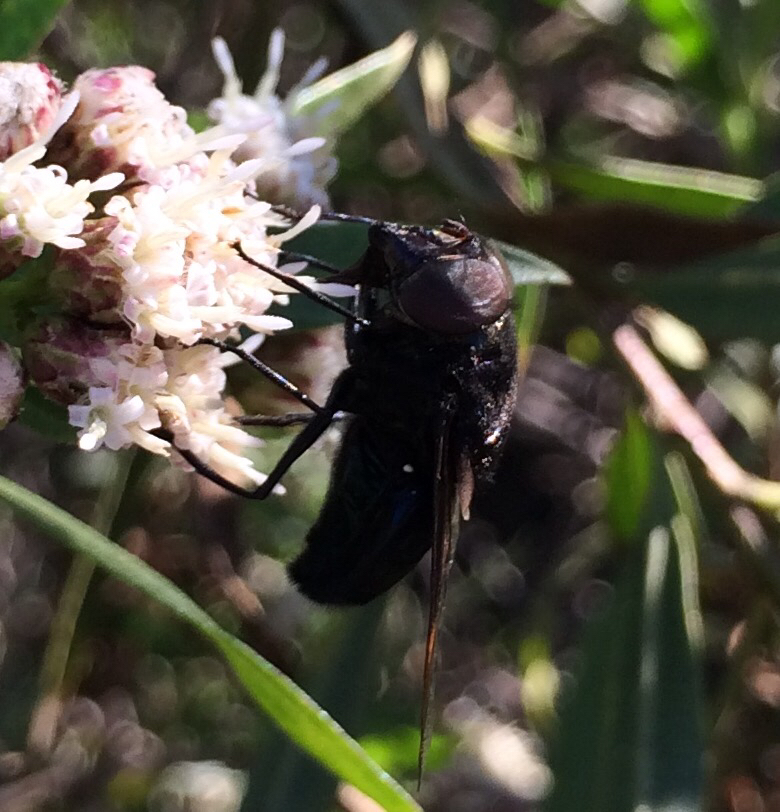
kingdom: Animalia
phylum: Arthropoda
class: Insecta
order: Diptera
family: Syrphidae
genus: Copestylum
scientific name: Copestylum mexicanum
